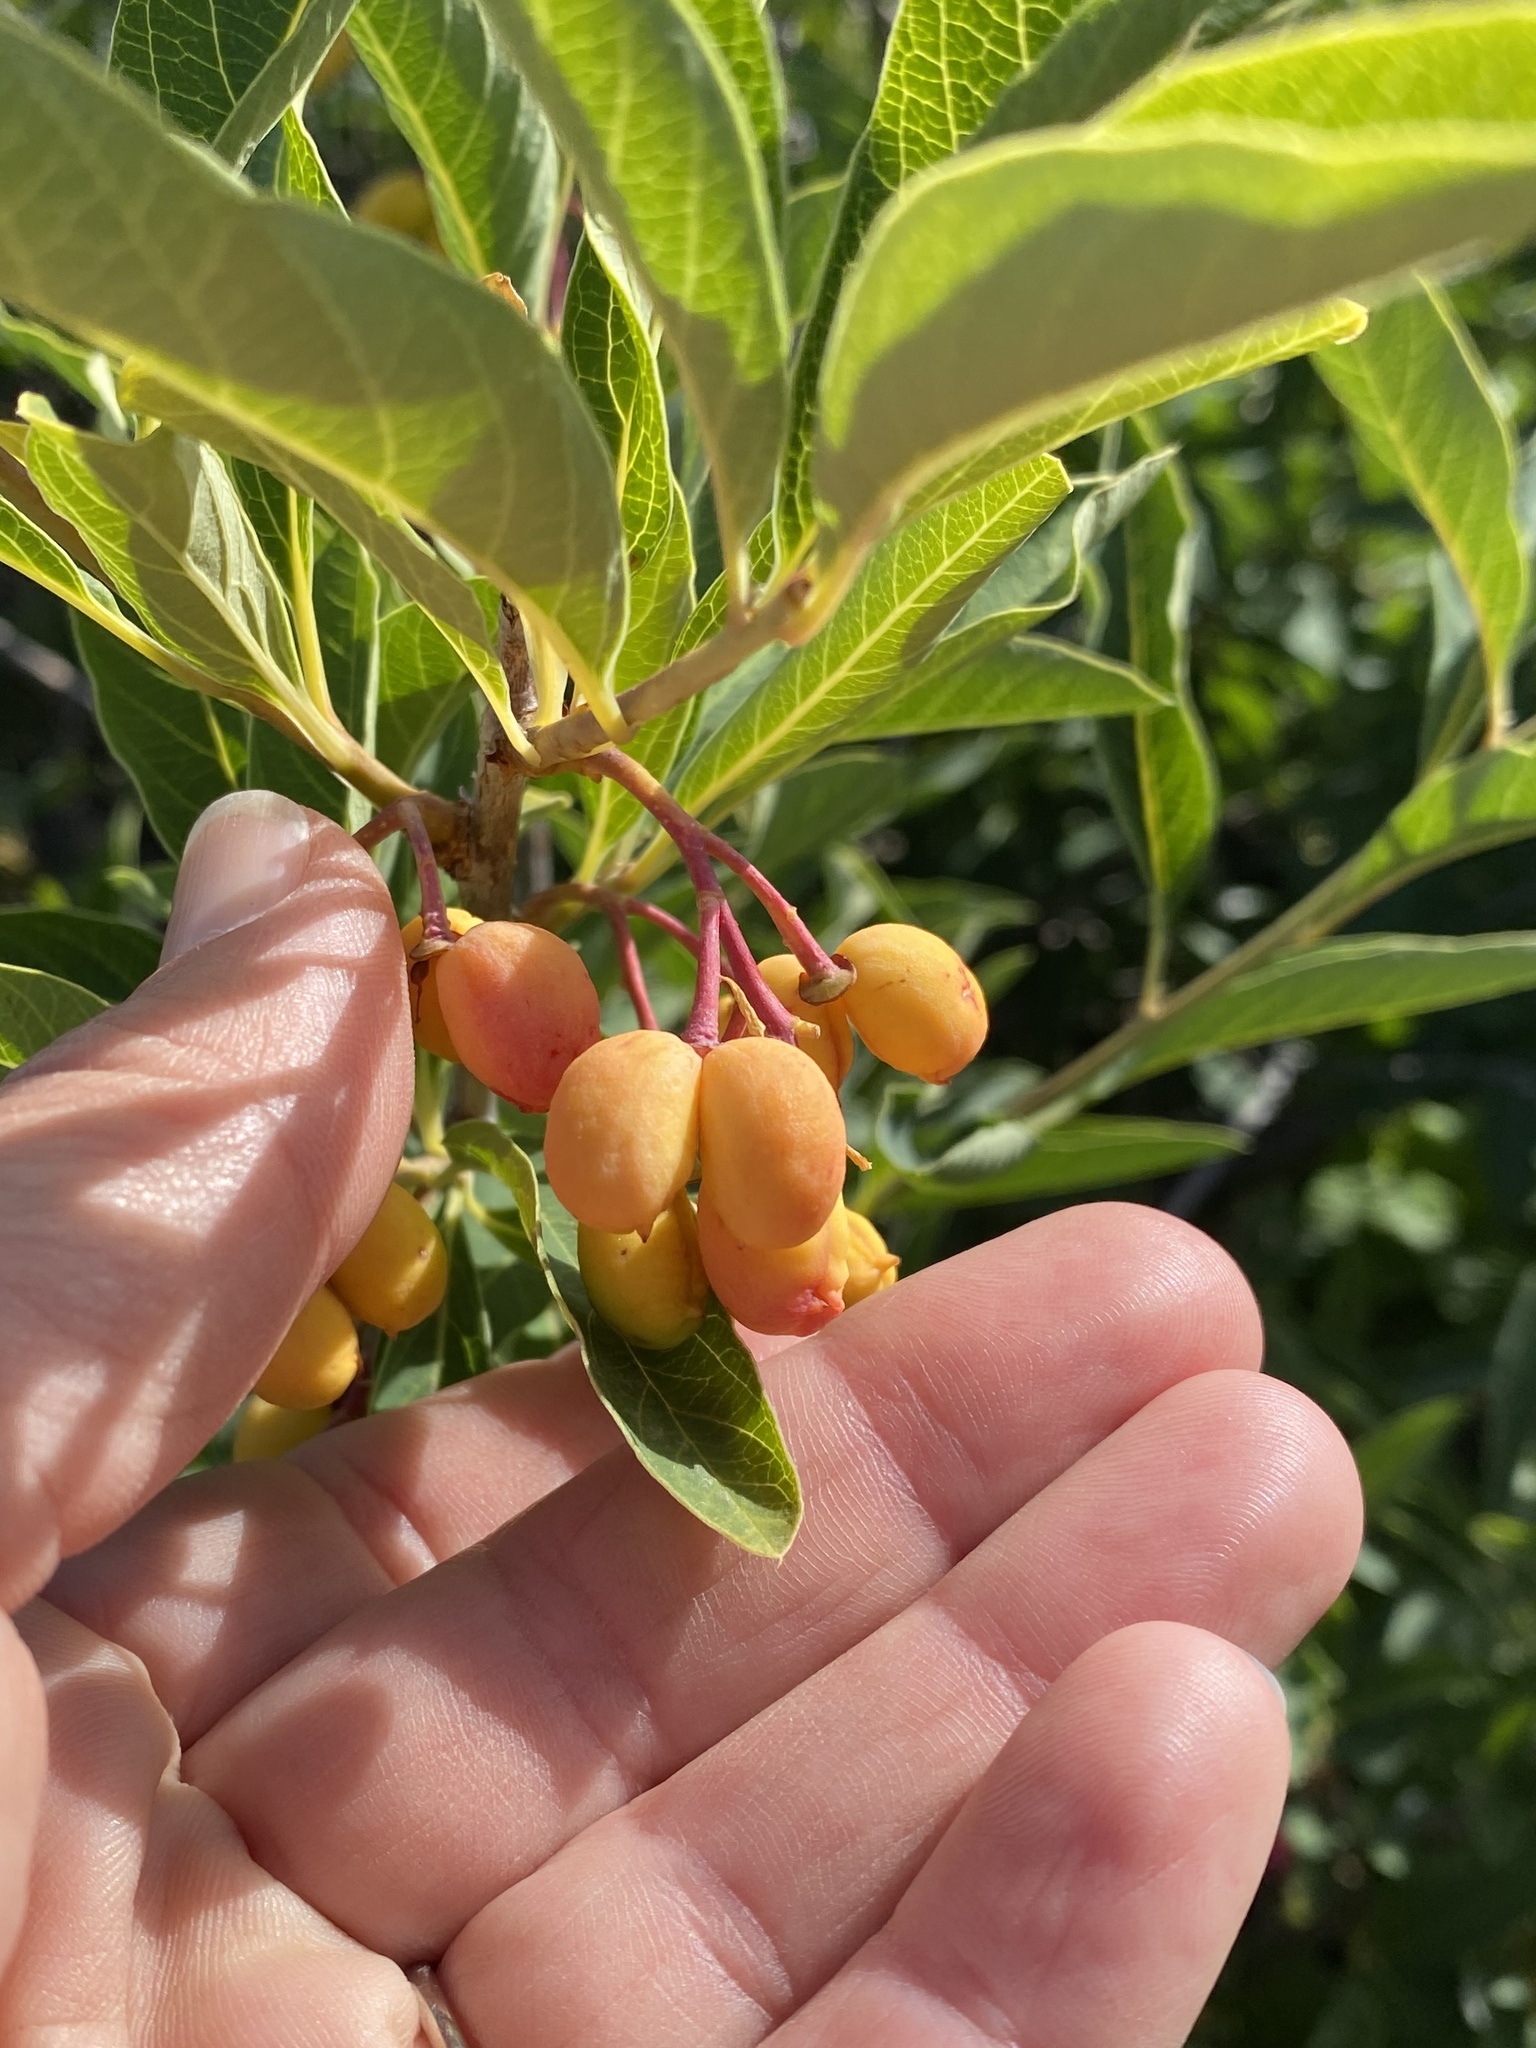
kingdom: Plantae
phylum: Tracheophyta
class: Magnoliopsida
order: Rosales
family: Rosaceae
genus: Oemleria
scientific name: Oemleria cerasiformis
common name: Osoberry
